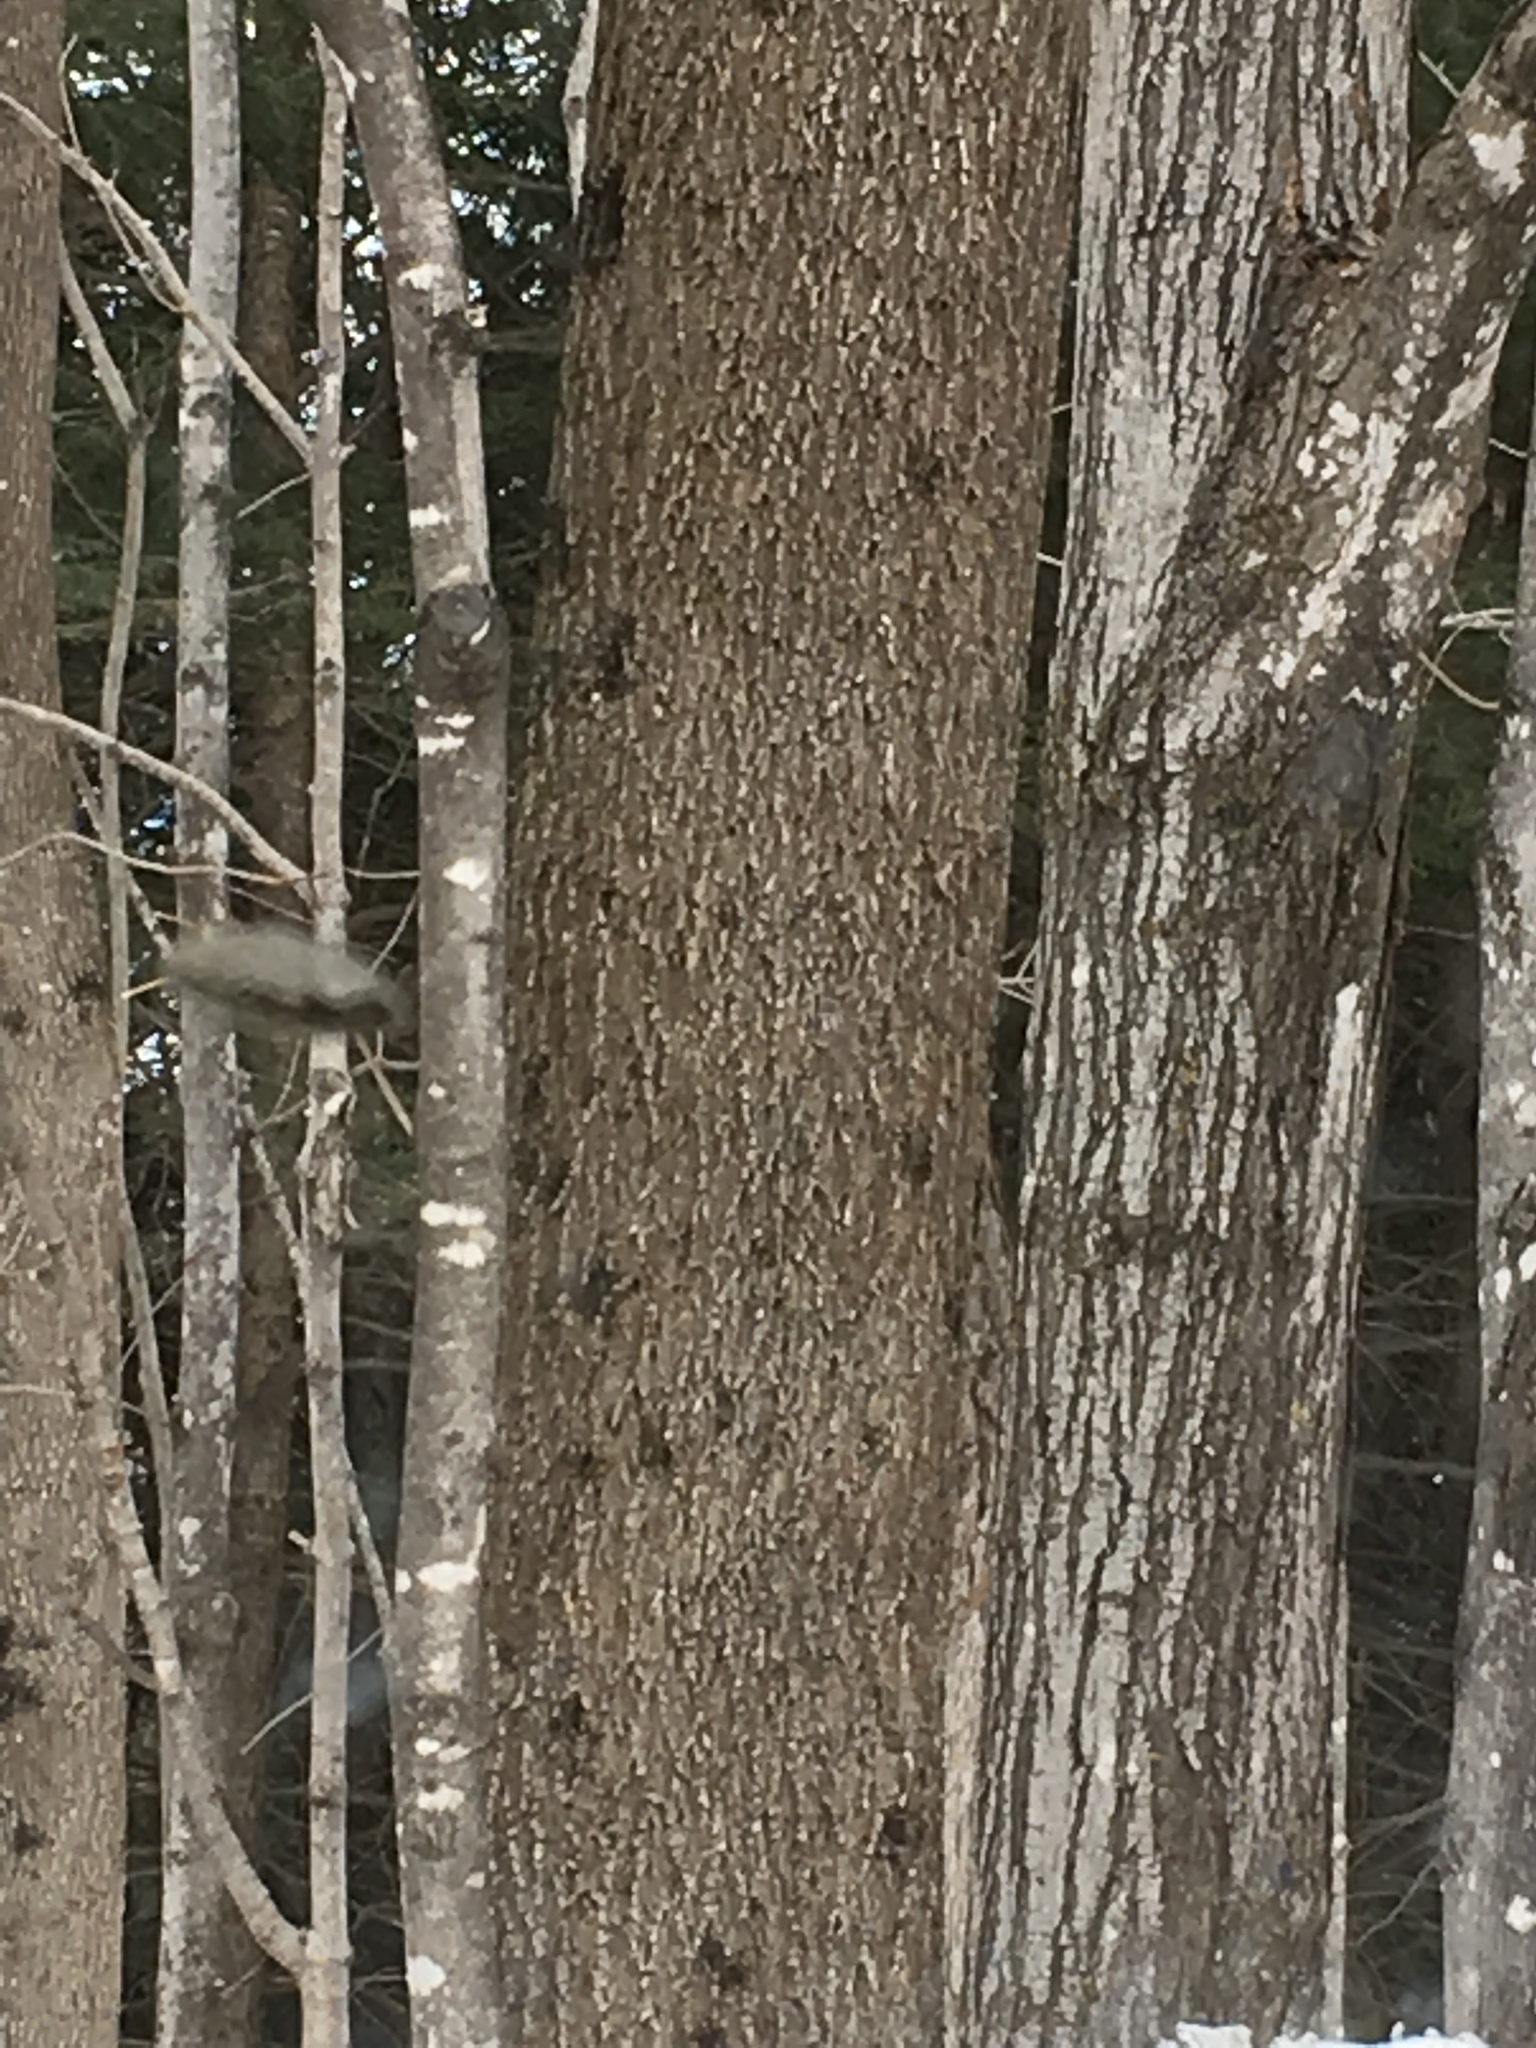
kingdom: Plantae
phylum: Tracheophyta
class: Magnoliopsida
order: Lamiales
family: Oleaceae
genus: Fraxinus
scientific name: Fraxinus americana
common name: White ash
